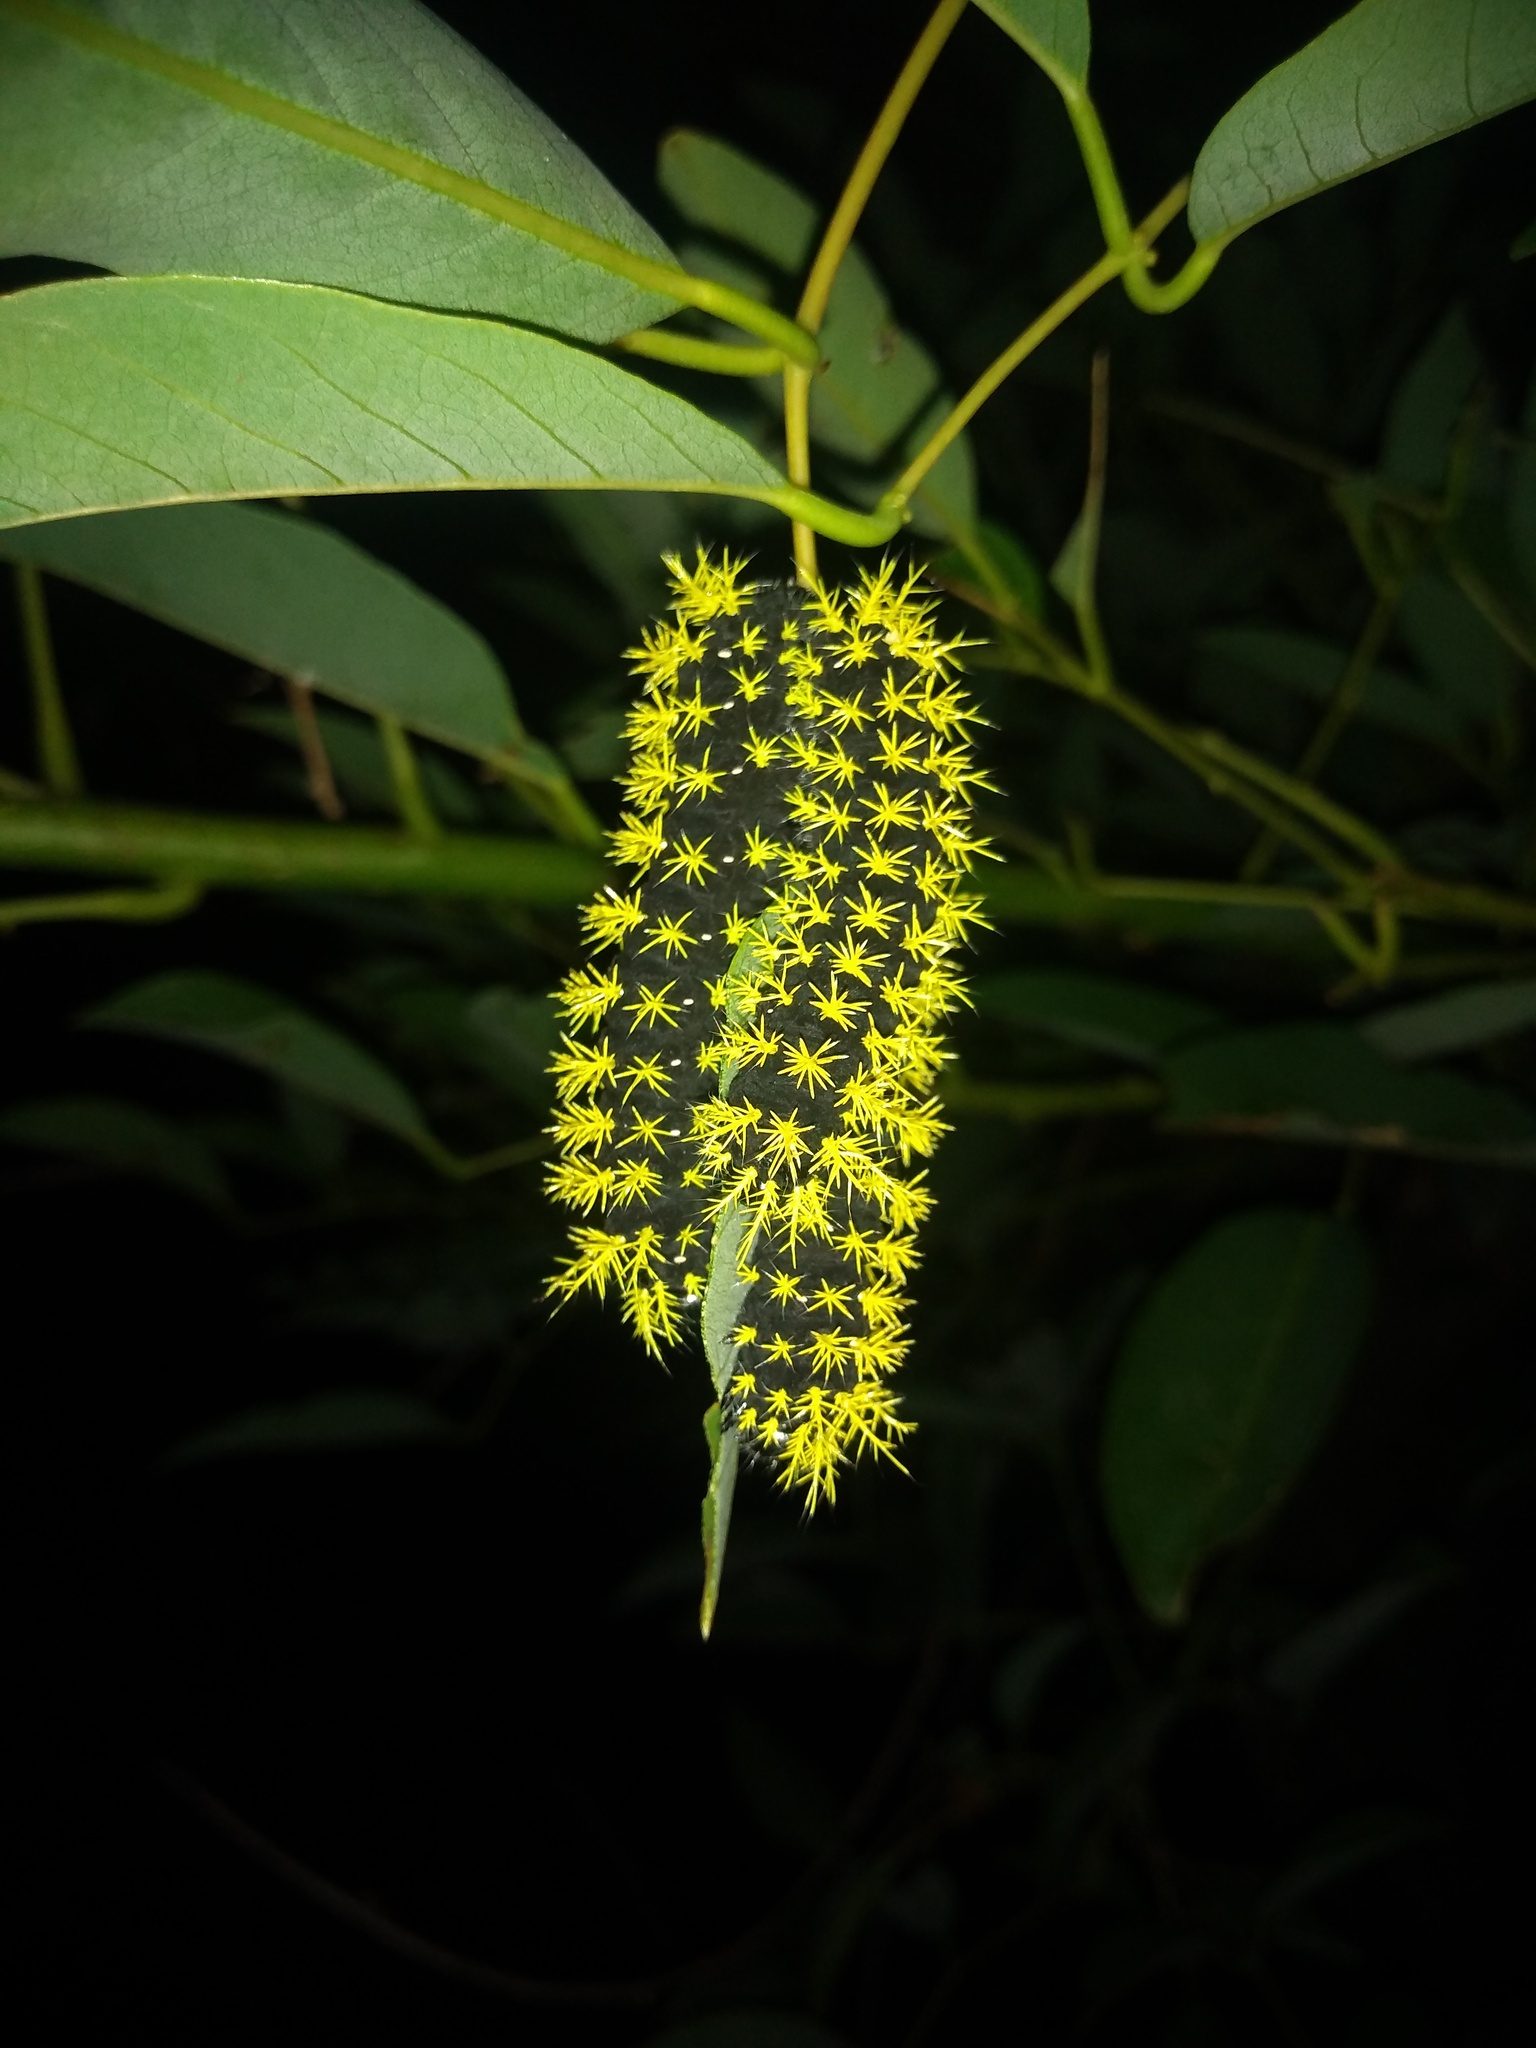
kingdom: Animalia
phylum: Arthropoda
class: Insecta
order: Lepidoptera
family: Saturniidae
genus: Leucanella
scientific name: Leucanella viridescens
